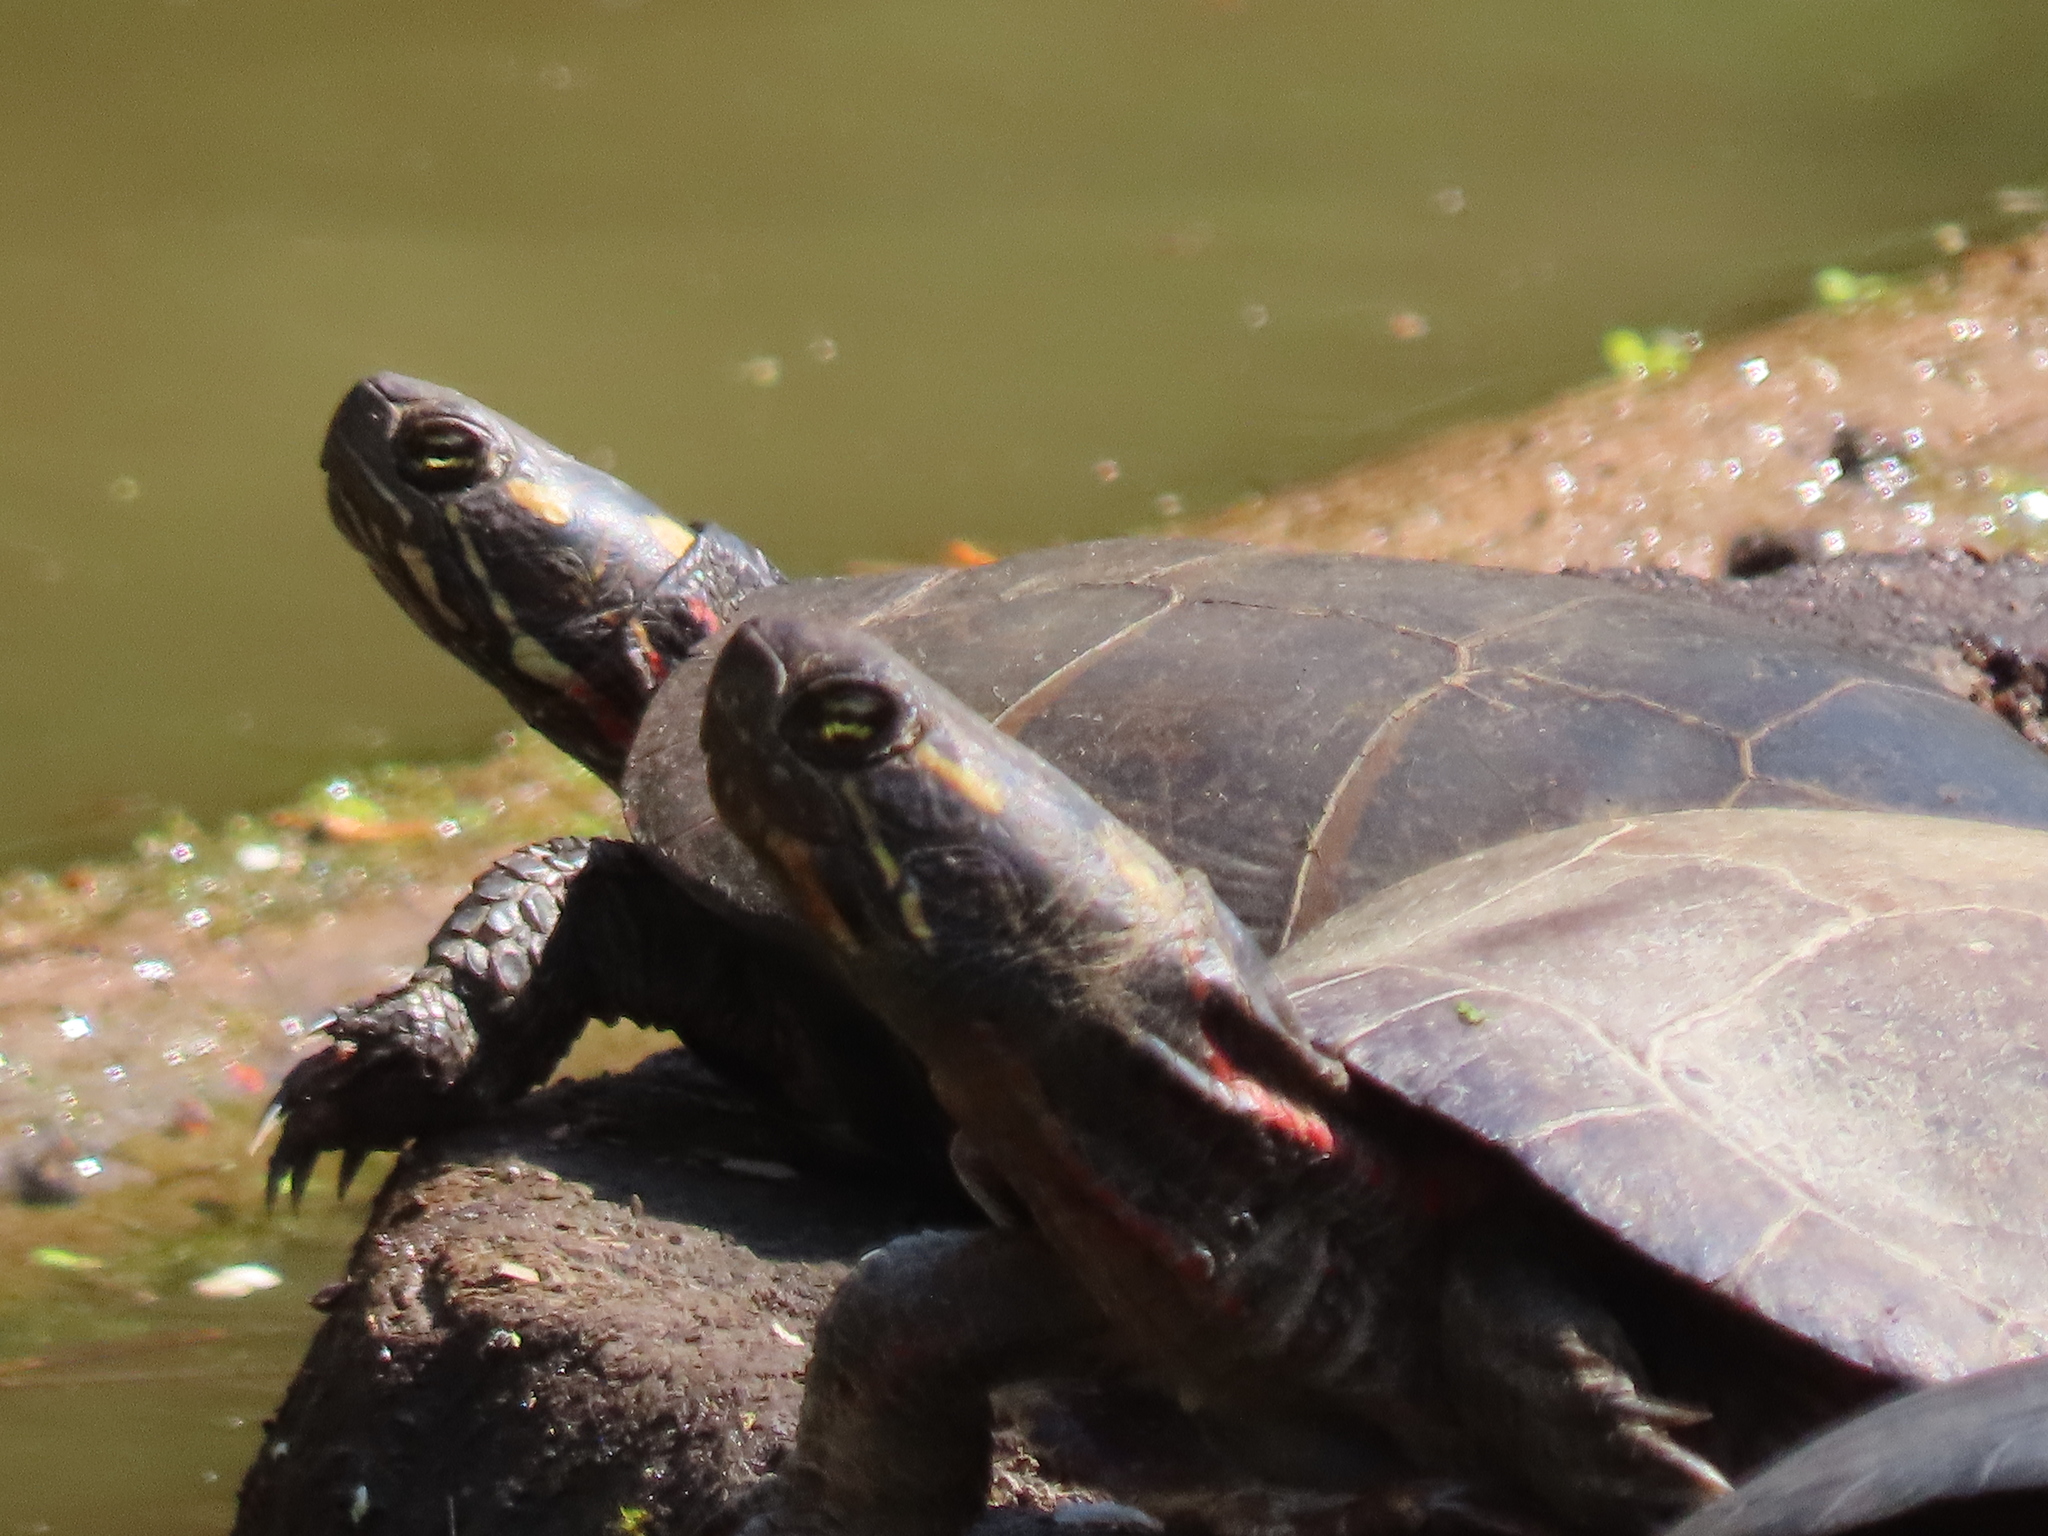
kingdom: Animalia
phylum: Chordata
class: Testudines
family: Emydidae
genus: Chrysemys
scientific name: Chrysemys picta
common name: Painted turtle
